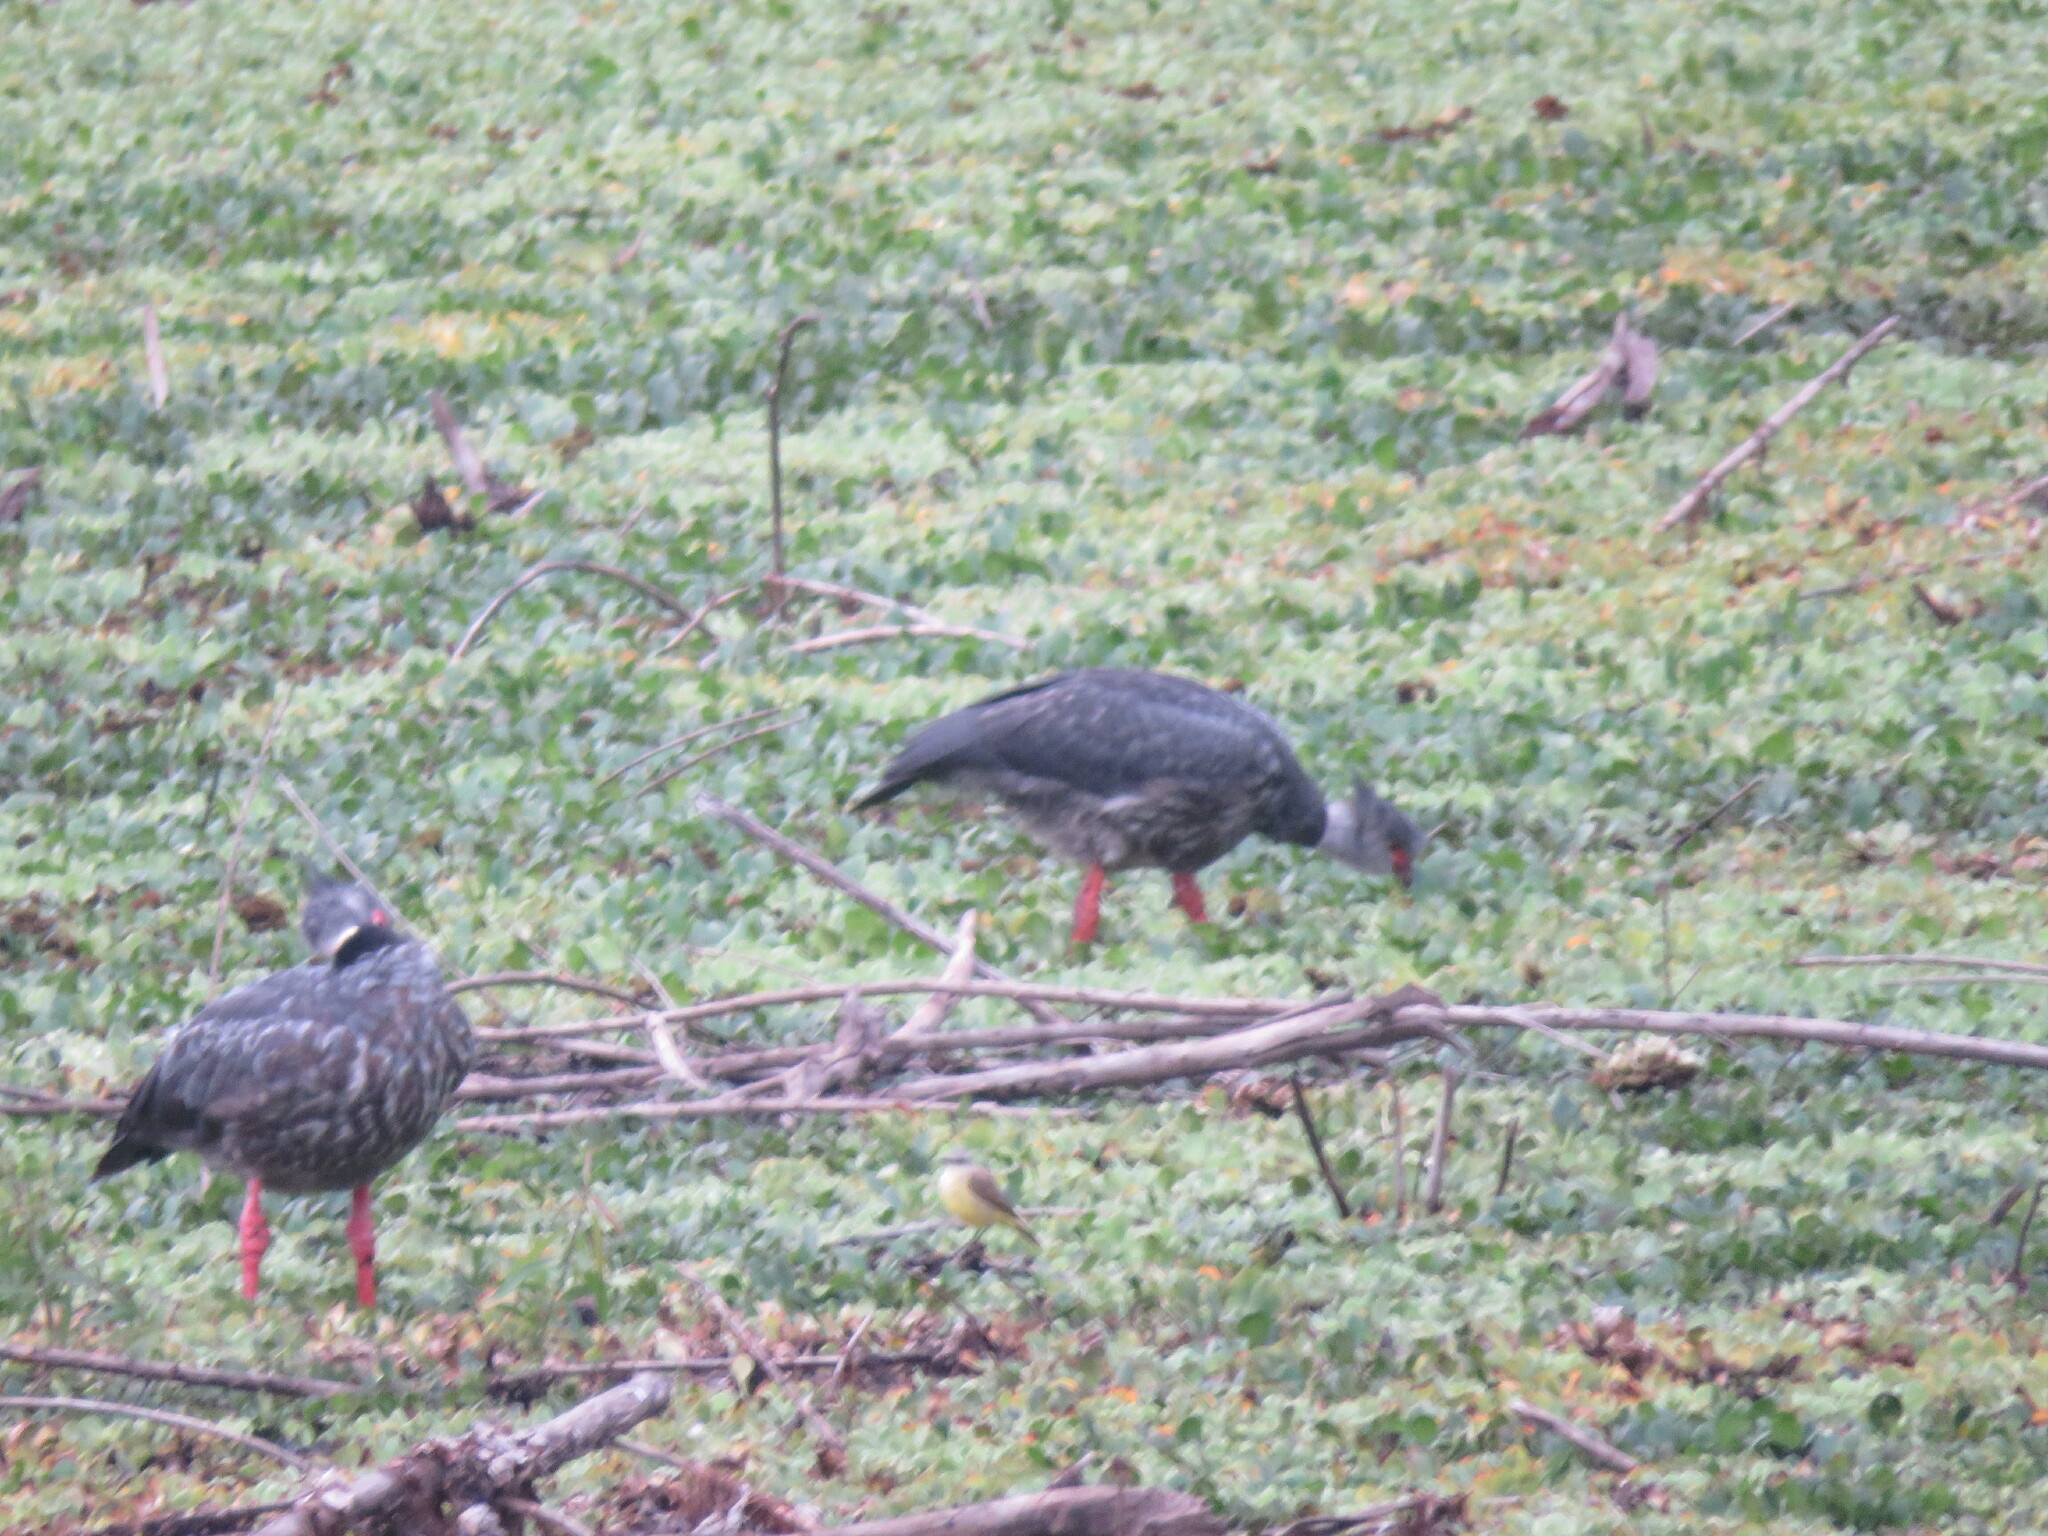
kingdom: Animalia
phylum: Chordata
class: Aves
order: Anseriformes
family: Anhimidae
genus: Chauna
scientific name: Chauna torquata
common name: Southern screamer
